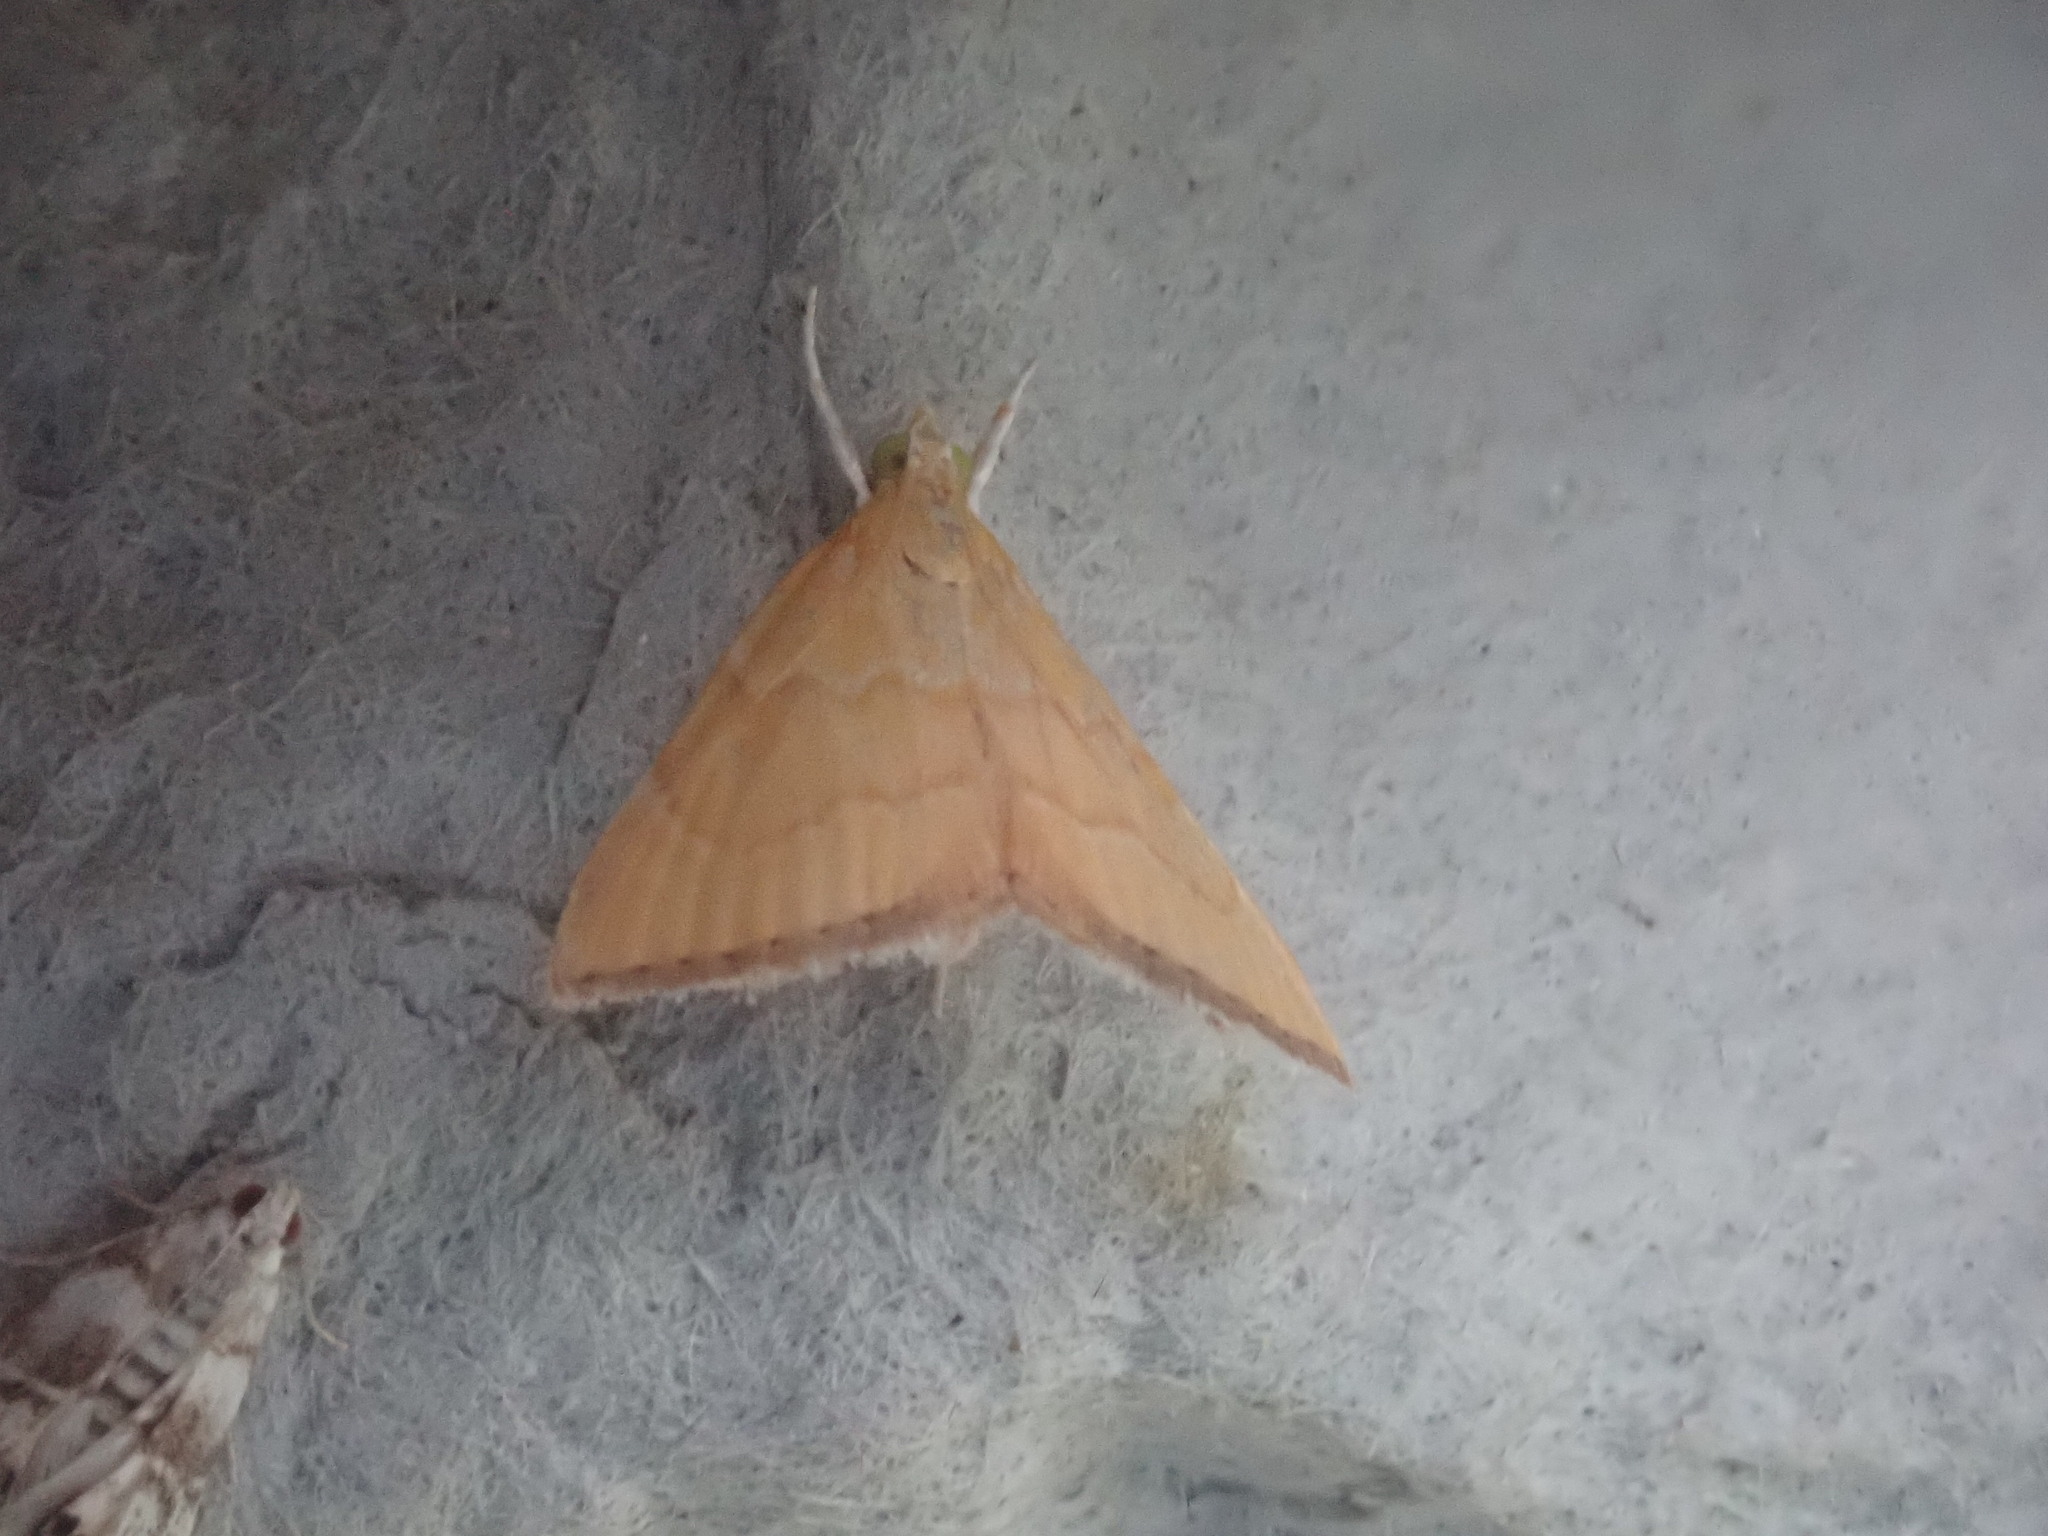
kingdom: Animalia
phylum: Arthropoda
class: Insecta
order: Lepidoptera
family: Crambidae
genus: Glaphyria
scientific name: Glaphyria invisalis
